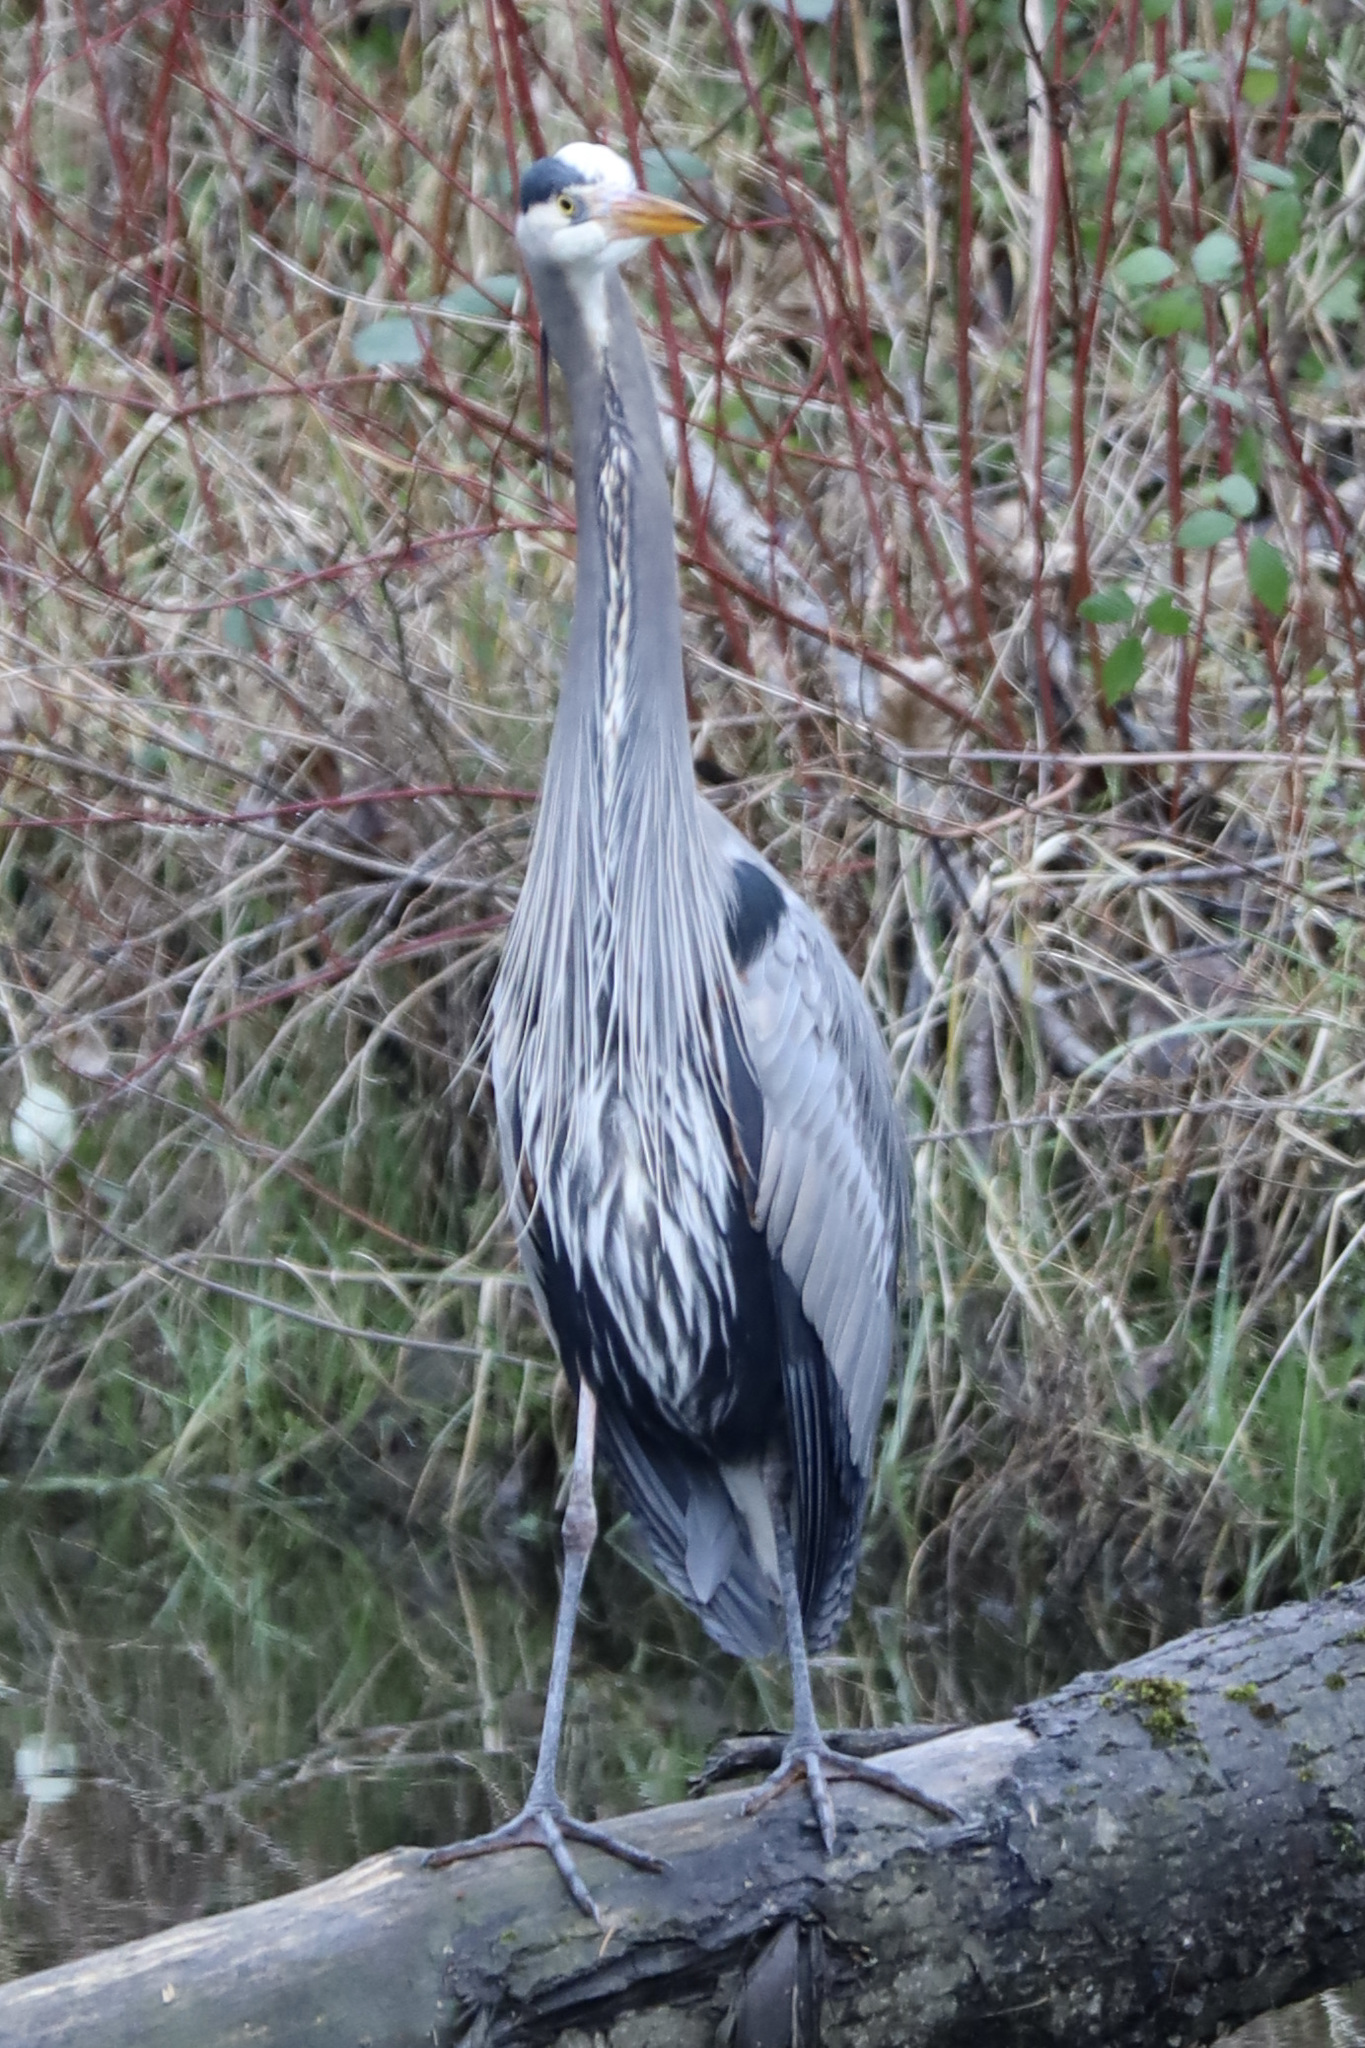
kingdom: Animalia
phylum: Chordata
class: Aves
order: Pelecaniformes
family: Ardeidae
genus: Ardea
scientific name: Ardea herodias
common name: Great blue heron
